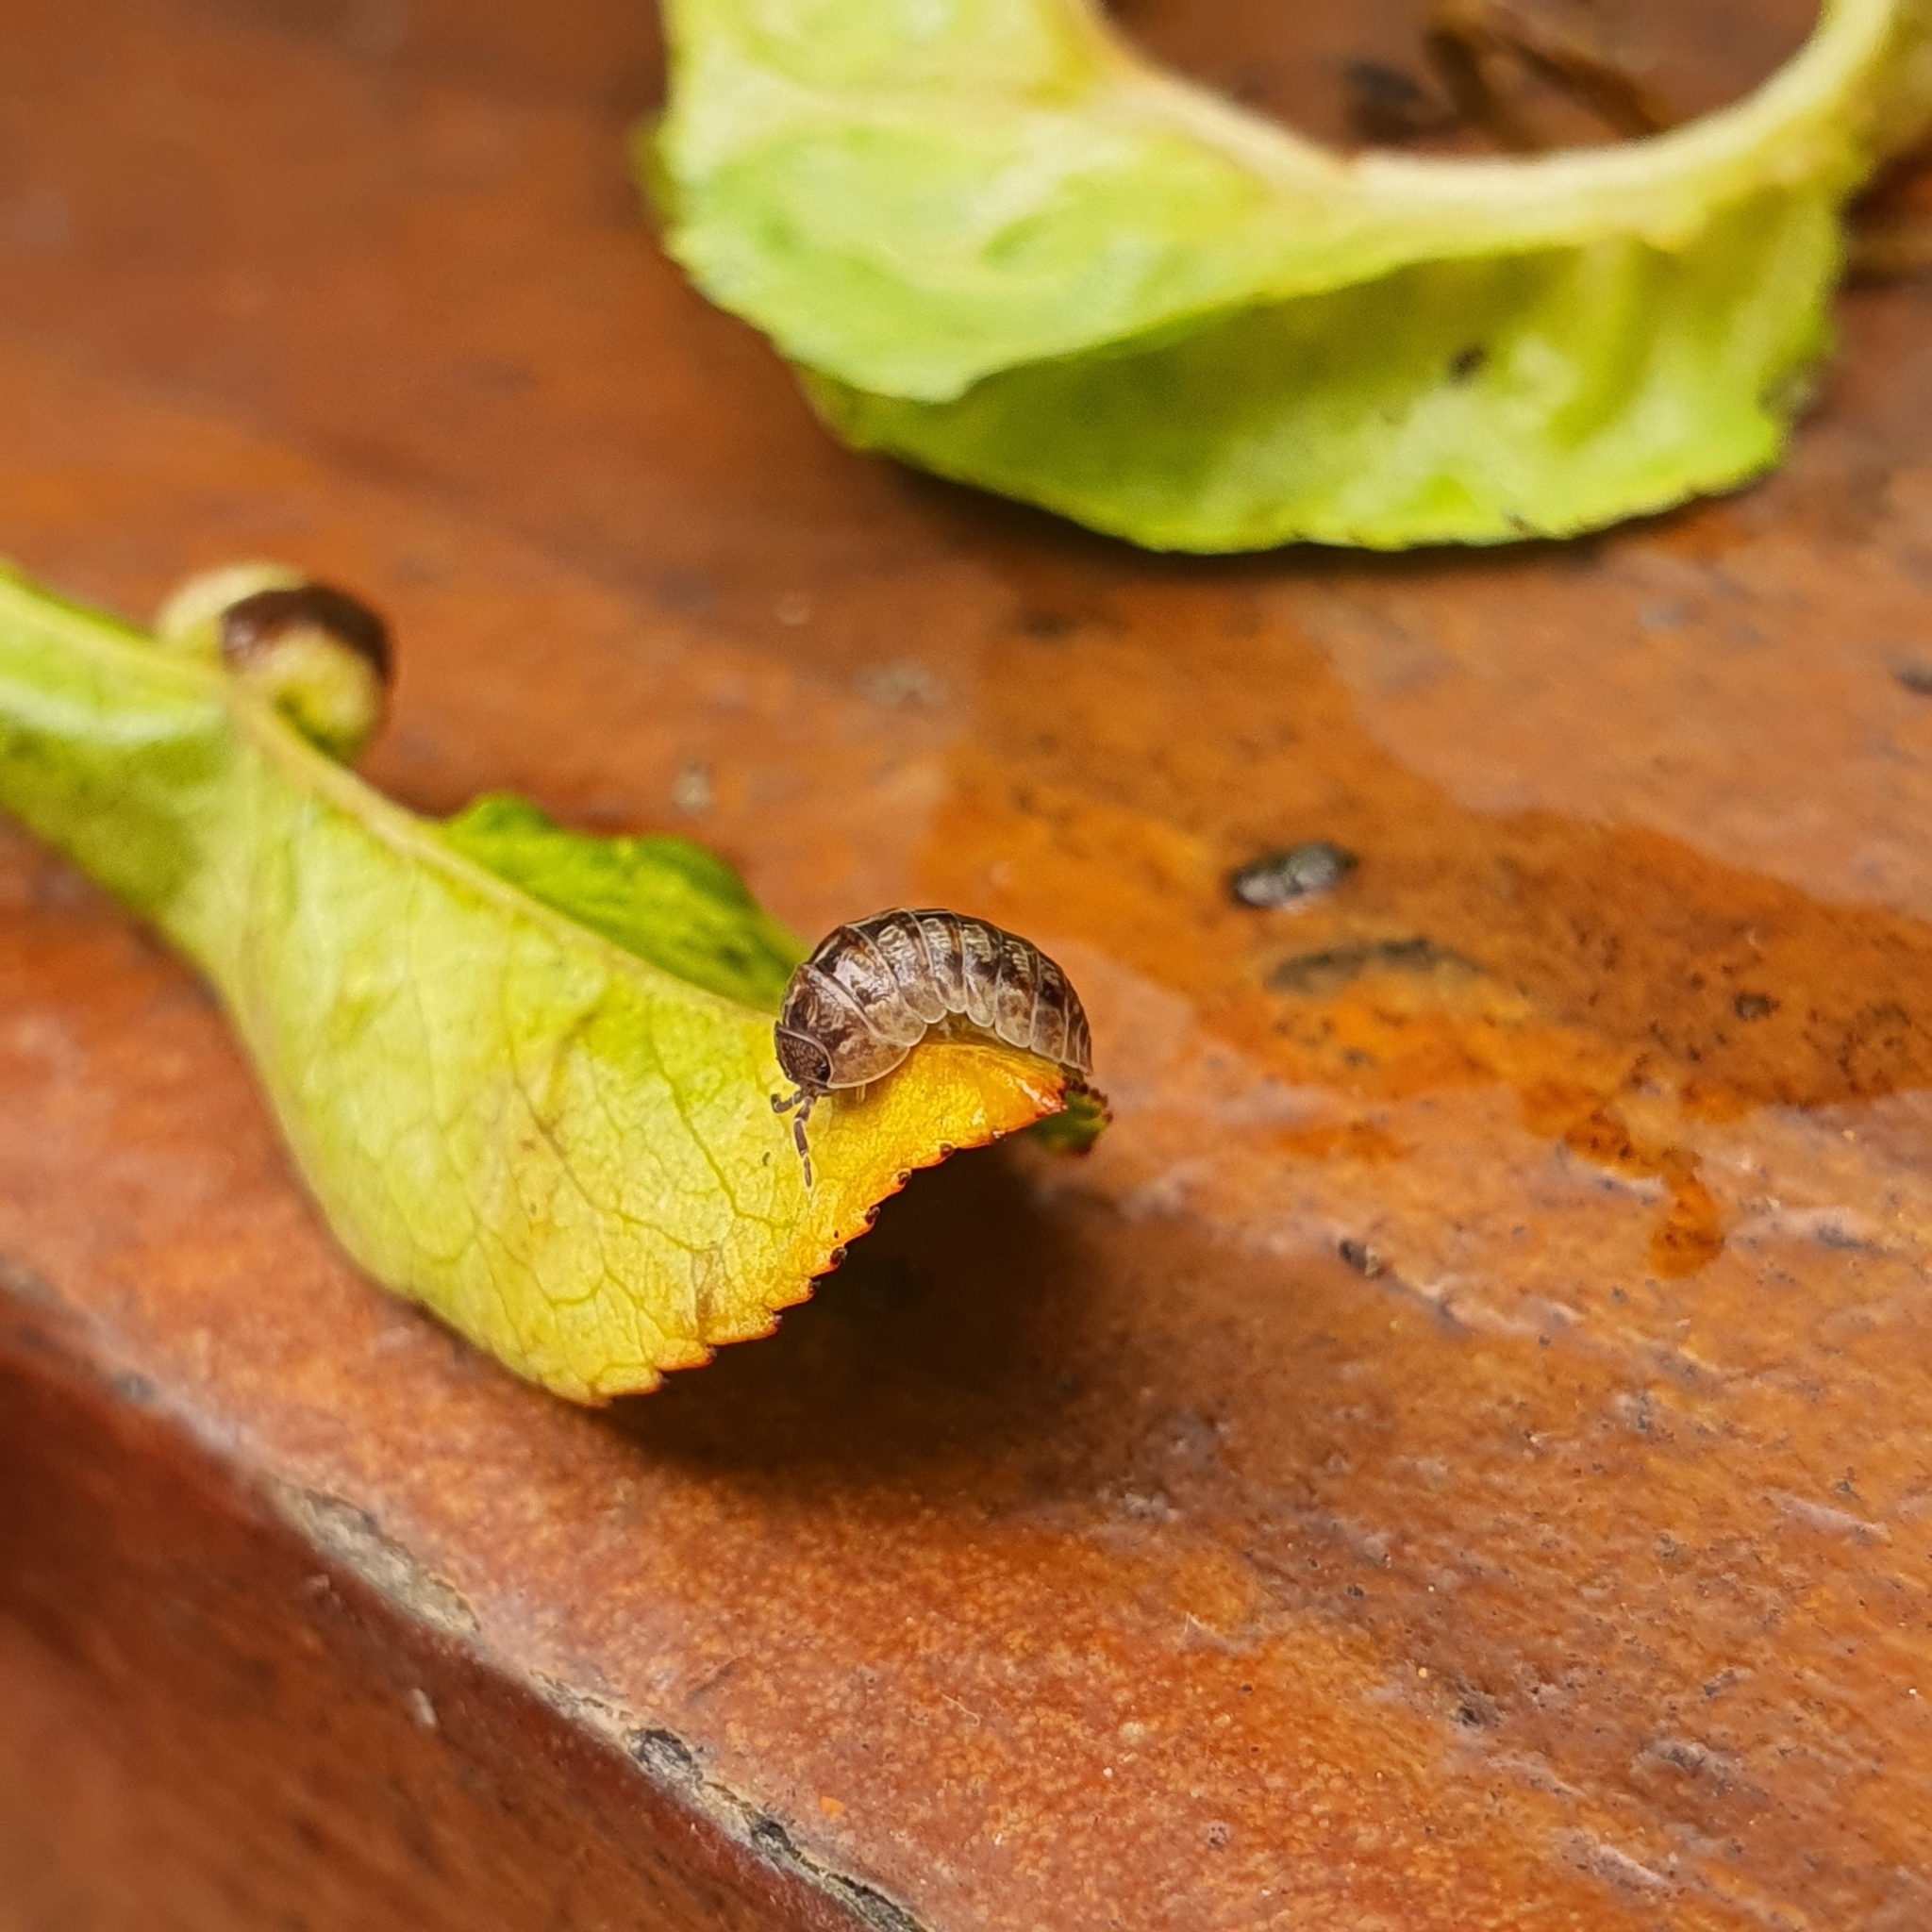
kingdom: Animalia
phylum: Arthropoda
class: Malacostraca
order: Isopoda
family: Armadillidiidae
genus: Armadillidium
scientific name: Armadillidium vulgare
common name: Common pill woodlouse
